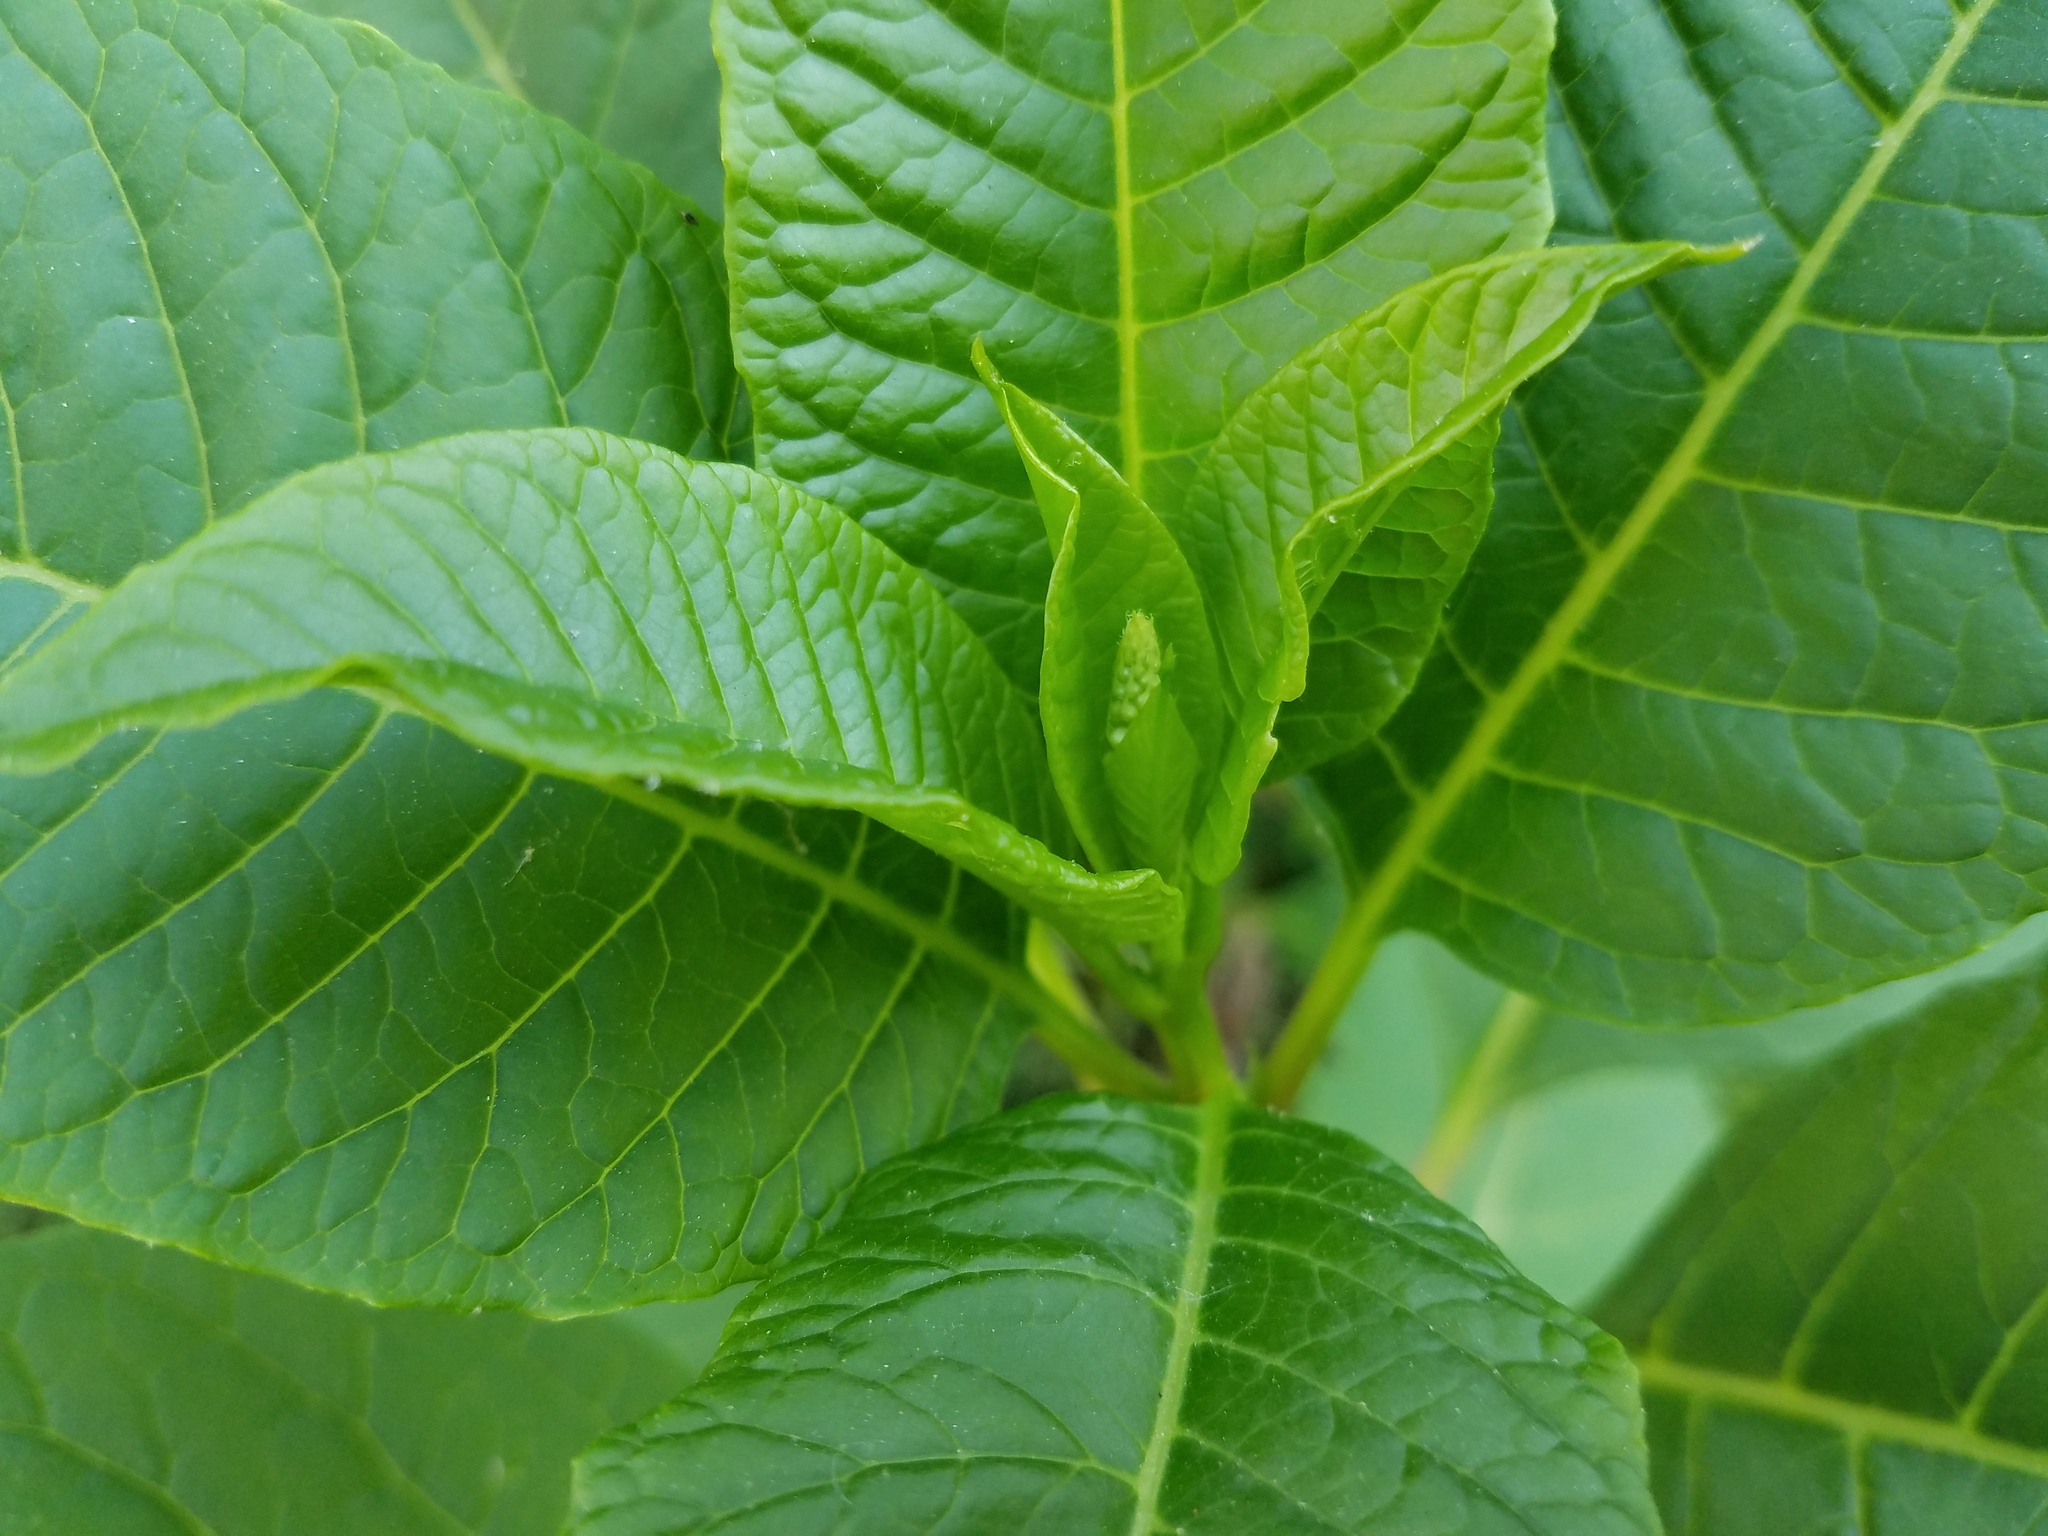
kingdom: Plantae
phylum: Tracheophyta
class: Magnoliopsida
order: Caryophyllales
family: Phytolaccaceae
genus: Phytolacca
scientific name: Phytolacca americana
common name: American pokeweed
